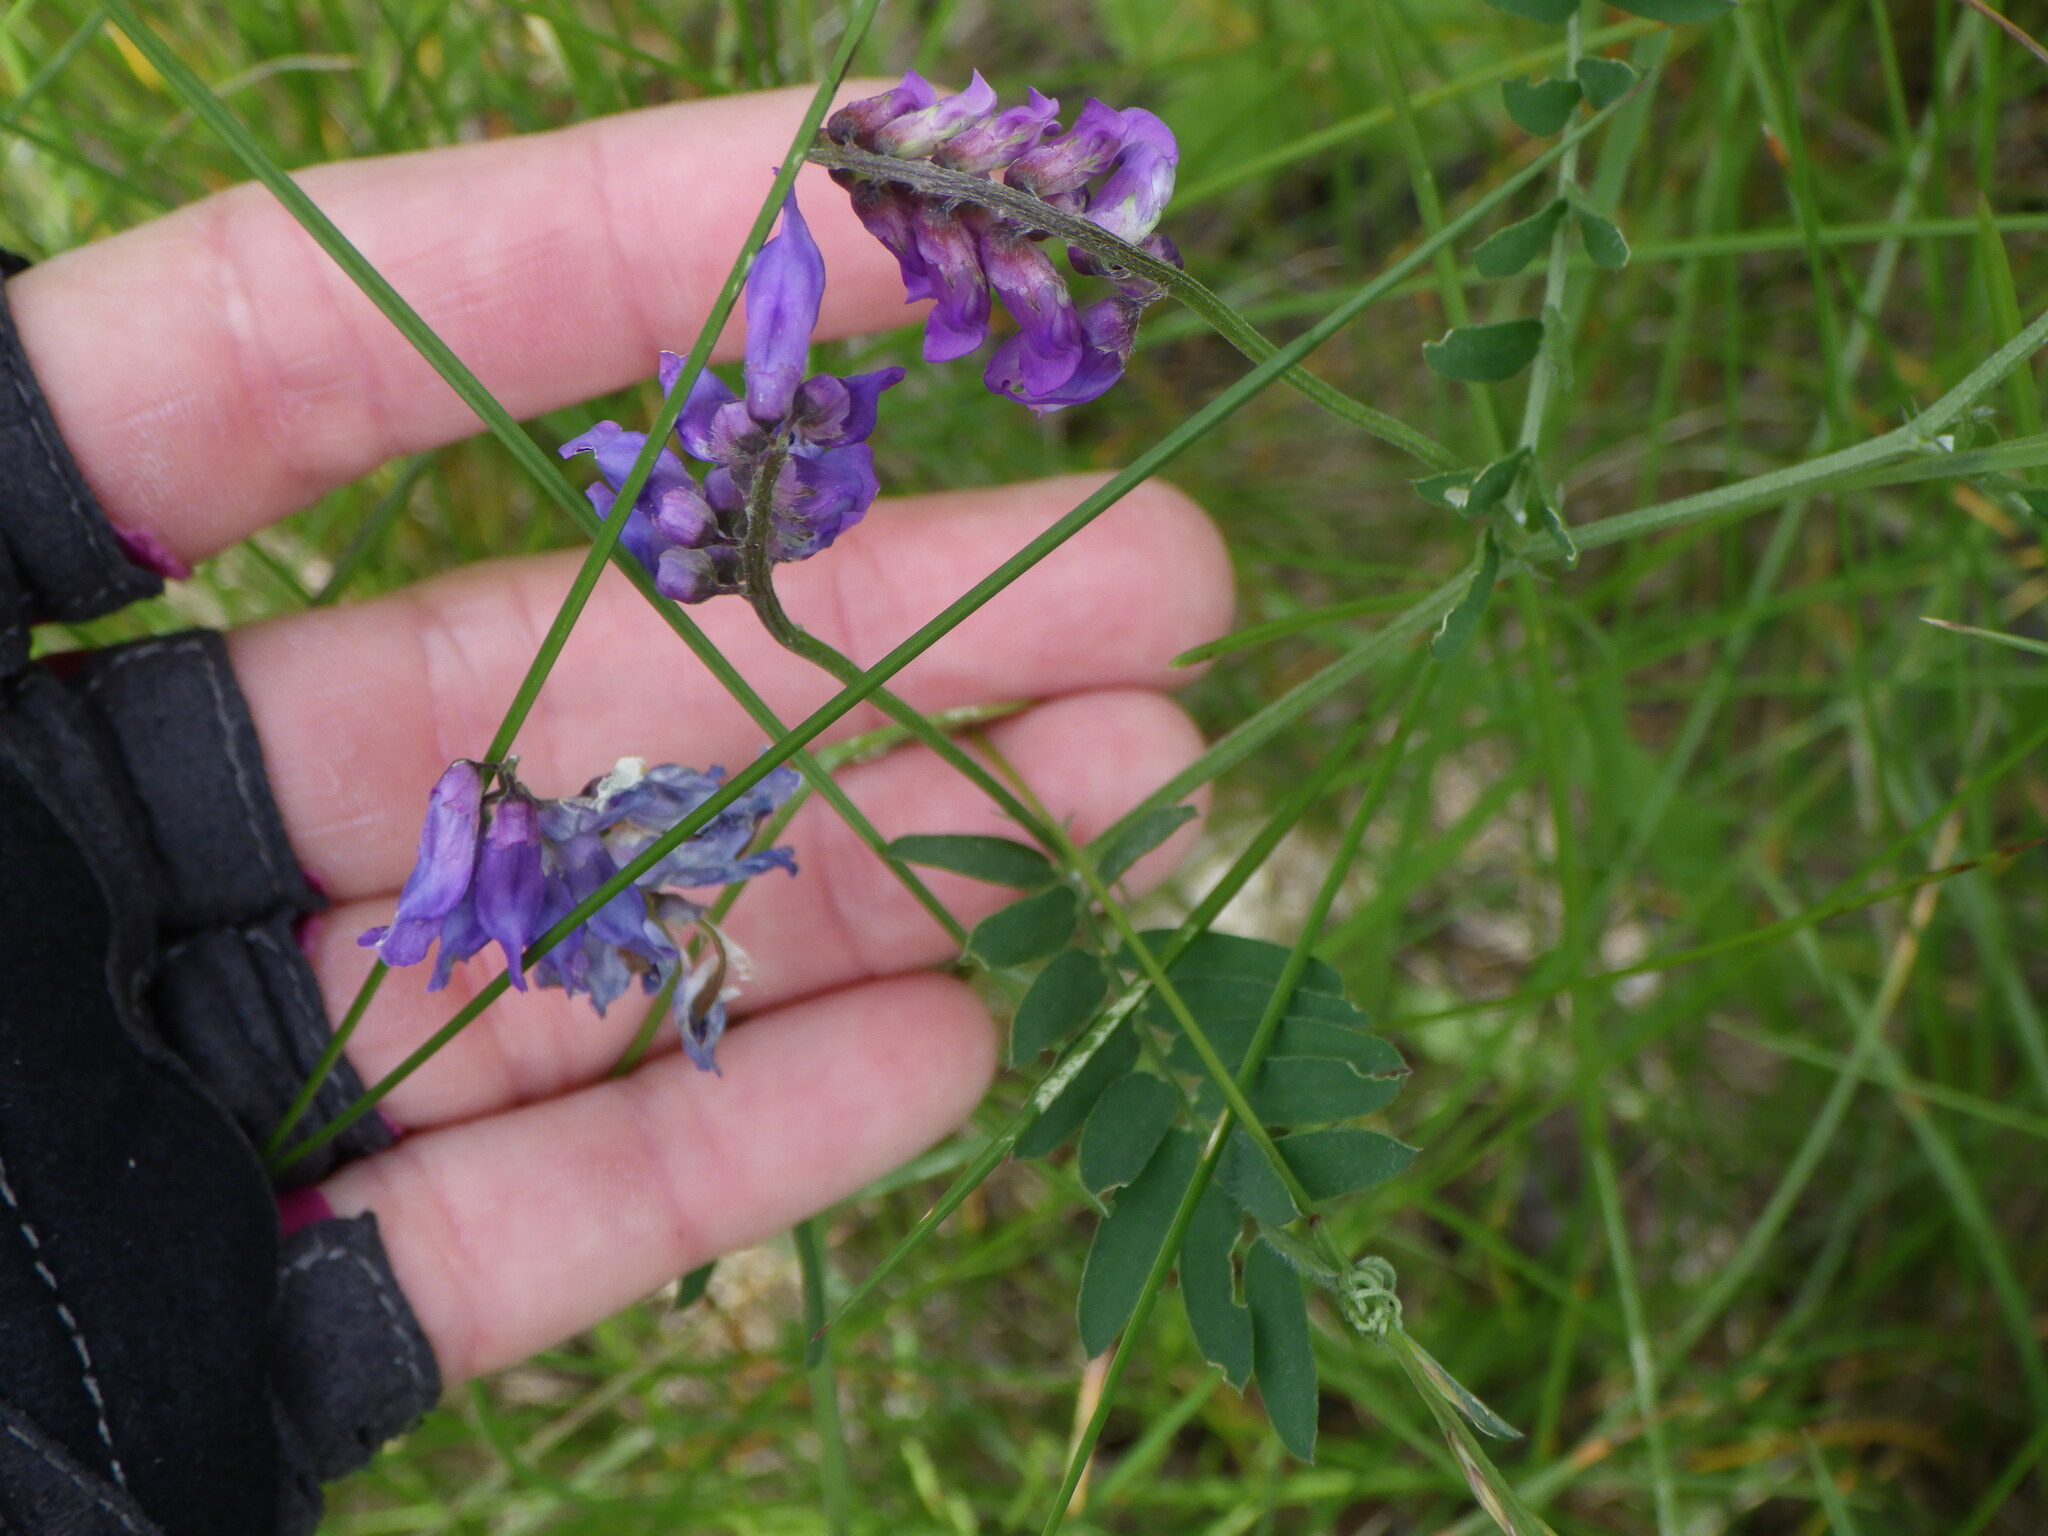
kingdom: Plantae
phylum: Tracheophyta
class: Magnoliopsida
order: Fabales
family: Fabaceae
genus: Vicia
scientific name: Vicia cracca
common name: Bird vetch
